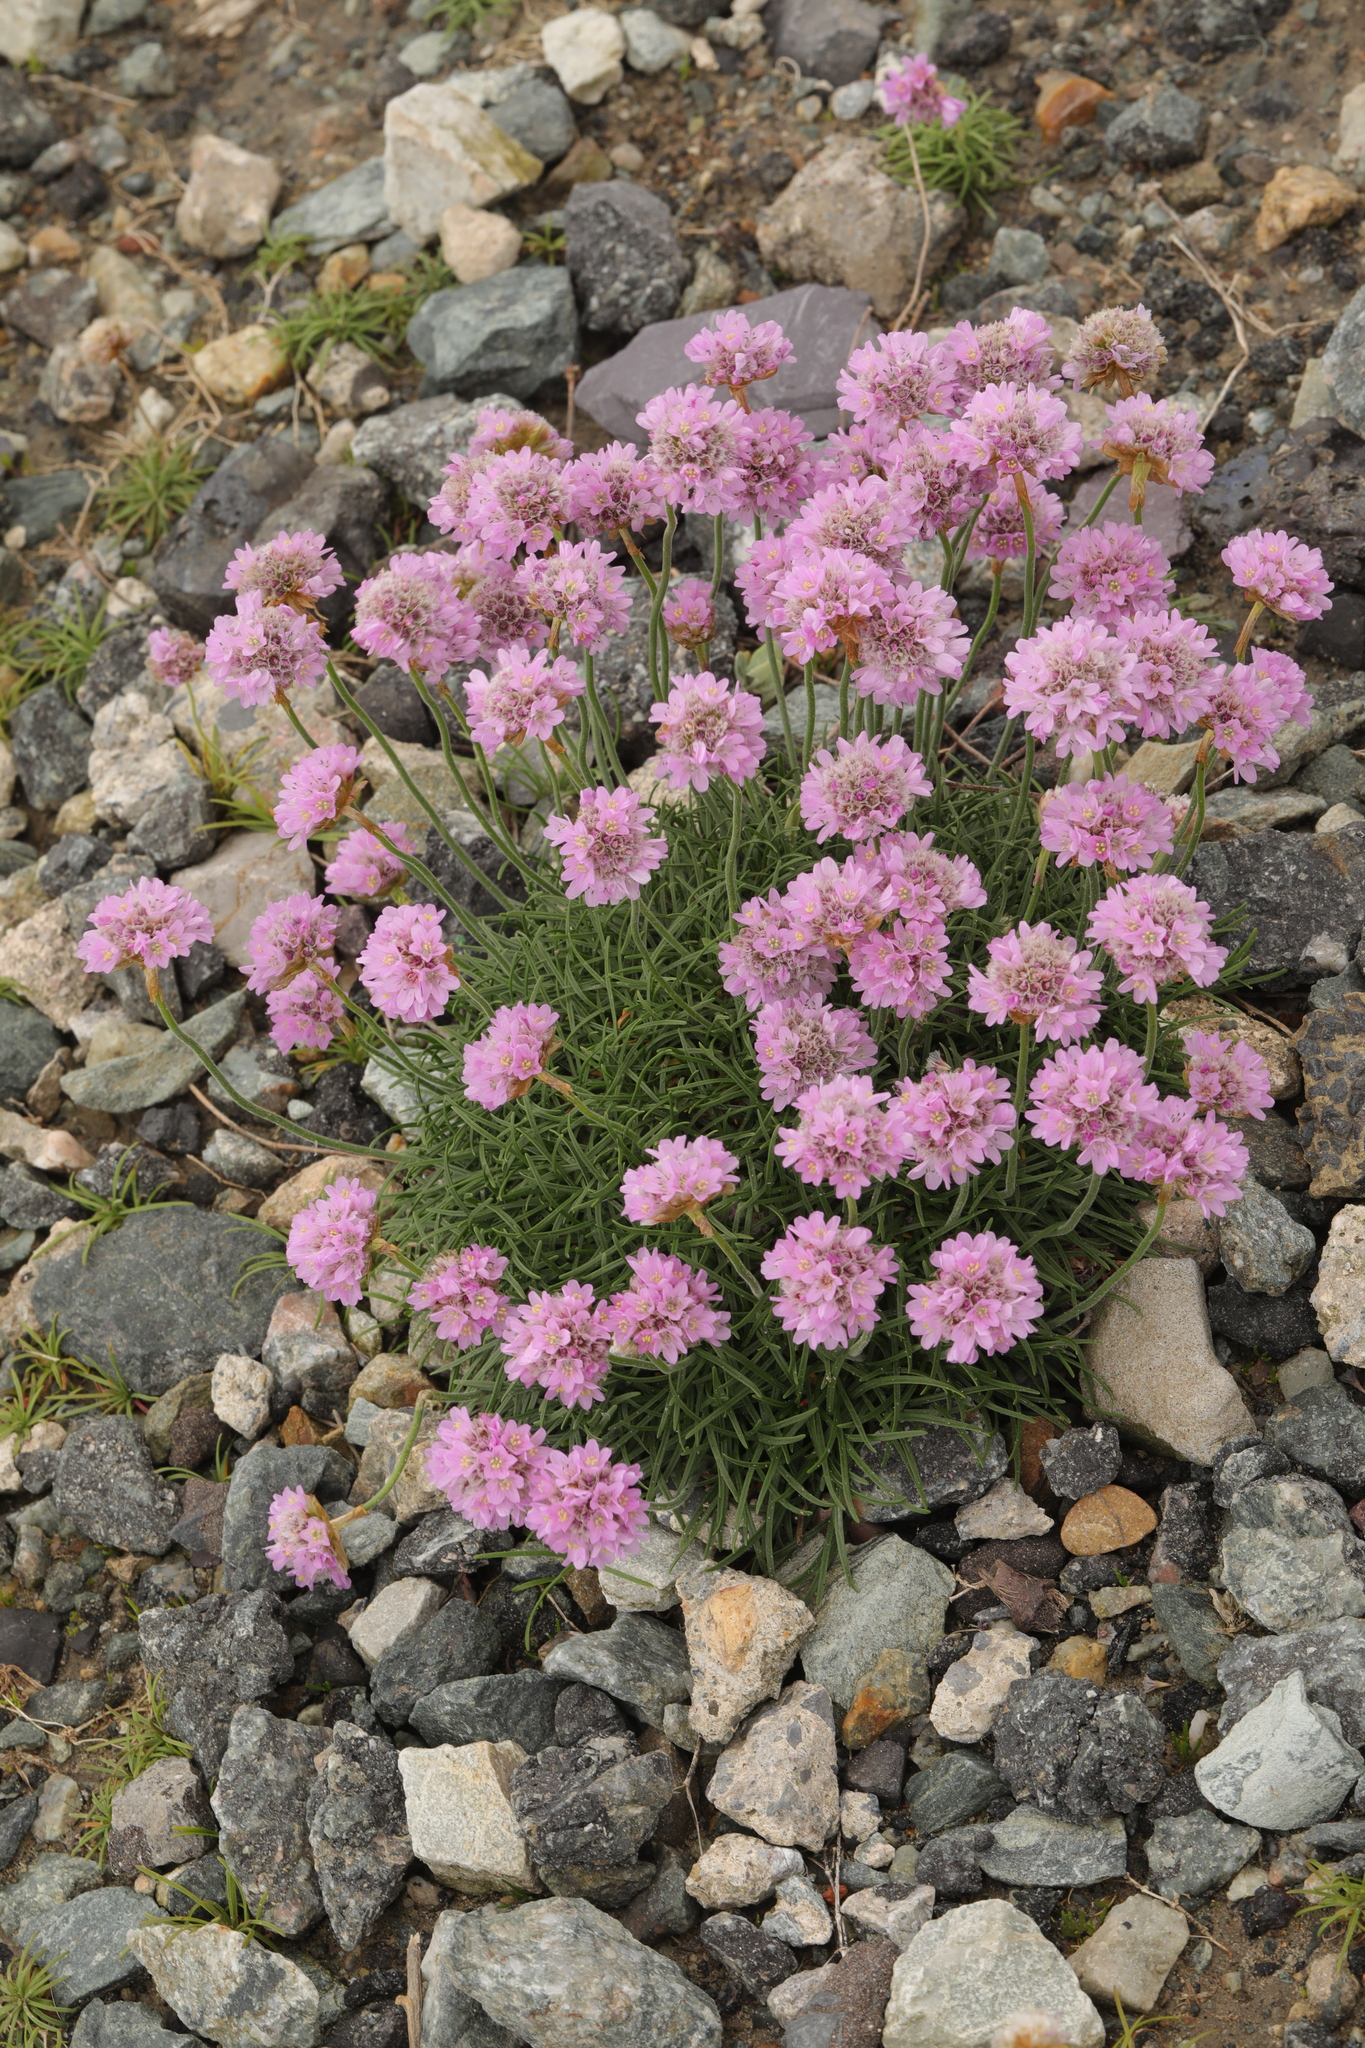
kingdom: Plantae
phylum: Tracheophyta
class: Magnoliopsida
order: Caryophyllales
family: Plumbaginaceae
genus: Armeria
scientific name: Armeria maritima
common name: Thrift
